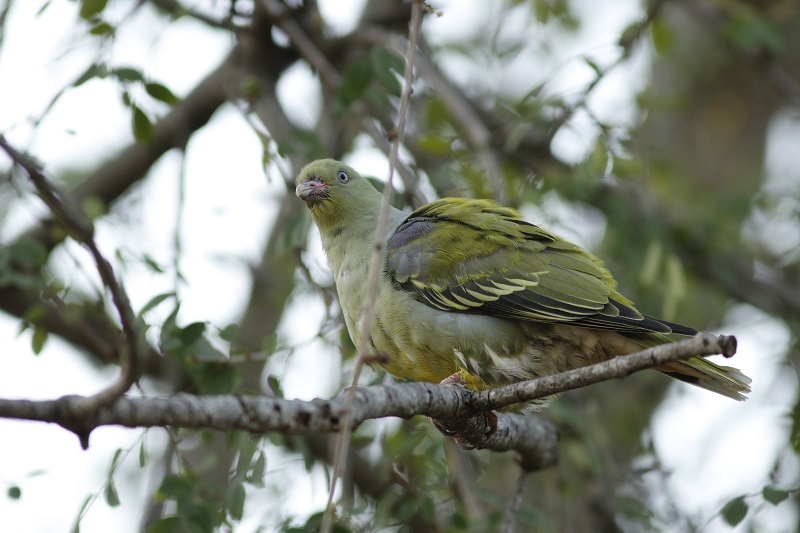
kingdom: Animalia
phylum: Chordata
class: Aves
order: Columbiformes
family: Columbidae
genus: Treron
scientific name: Treron calvus
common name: African green pigeon
